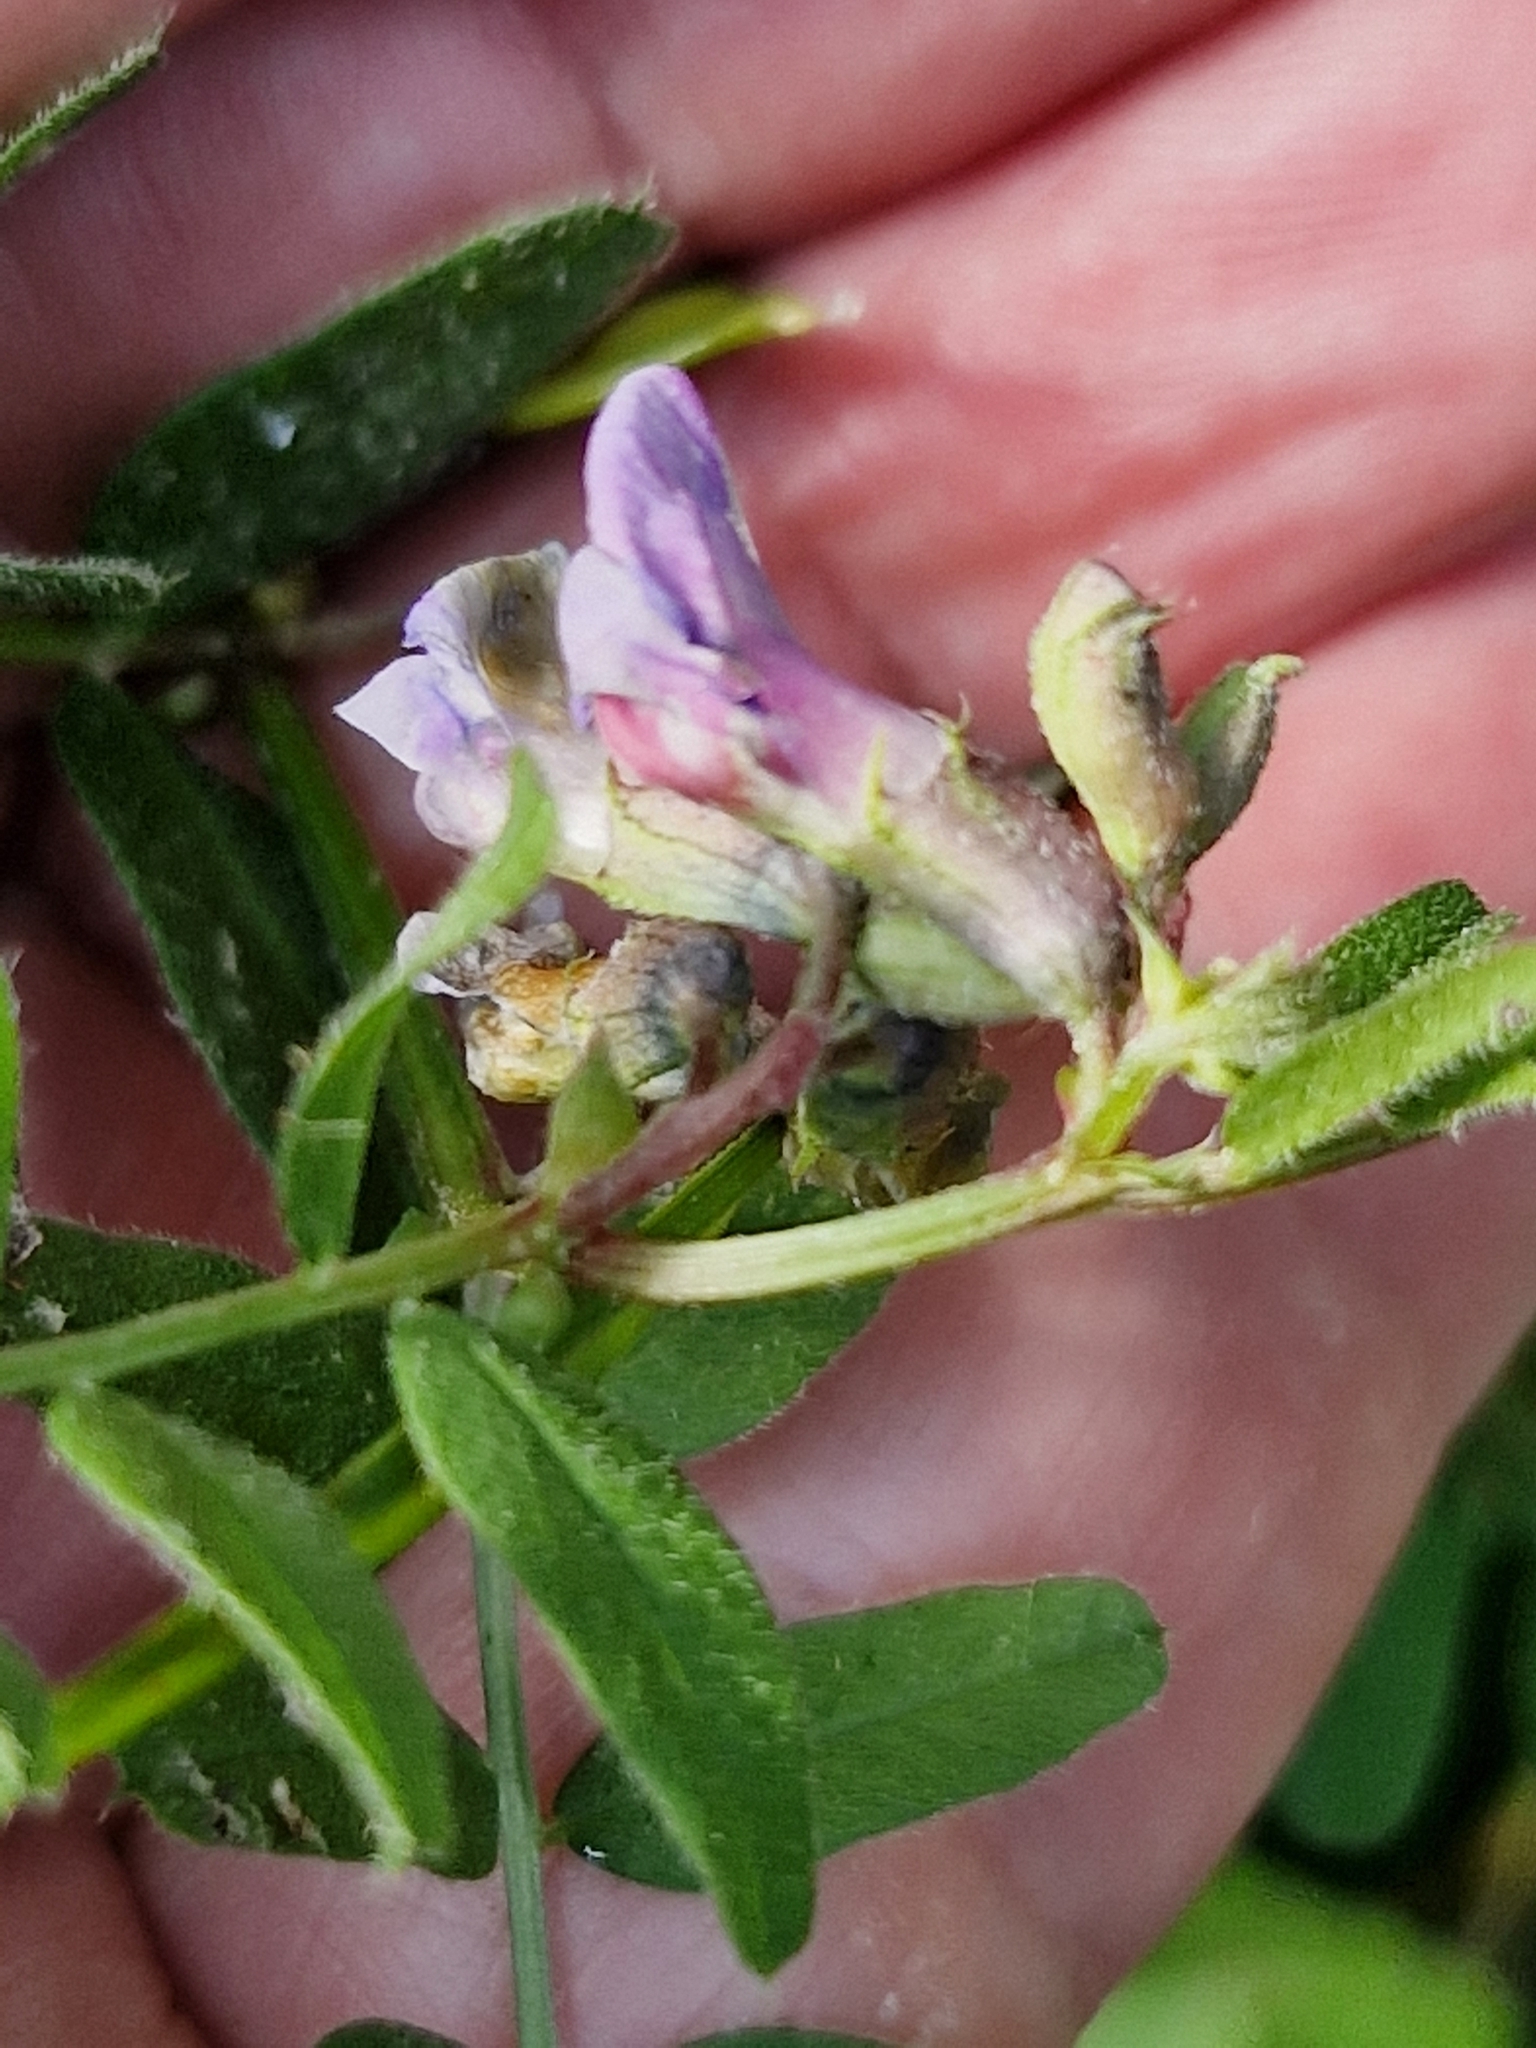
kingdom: Plantae
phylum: Tracheophyta
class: Magnoliopsida
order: Fabales
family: Fabaceae
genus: Vicia
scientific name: Vicia sepium
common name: Bush vetch
